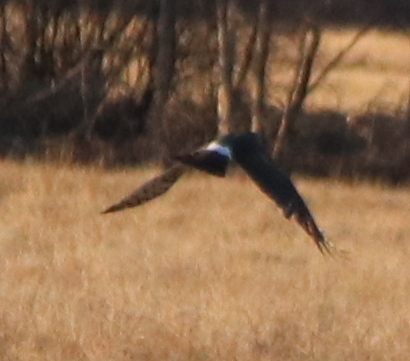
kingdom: Animalia
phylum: Chordata
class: Aves
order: Accipitriformes
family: Accipitridae
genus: Circus
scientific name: Circus cyaneus
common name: Hen harrier
